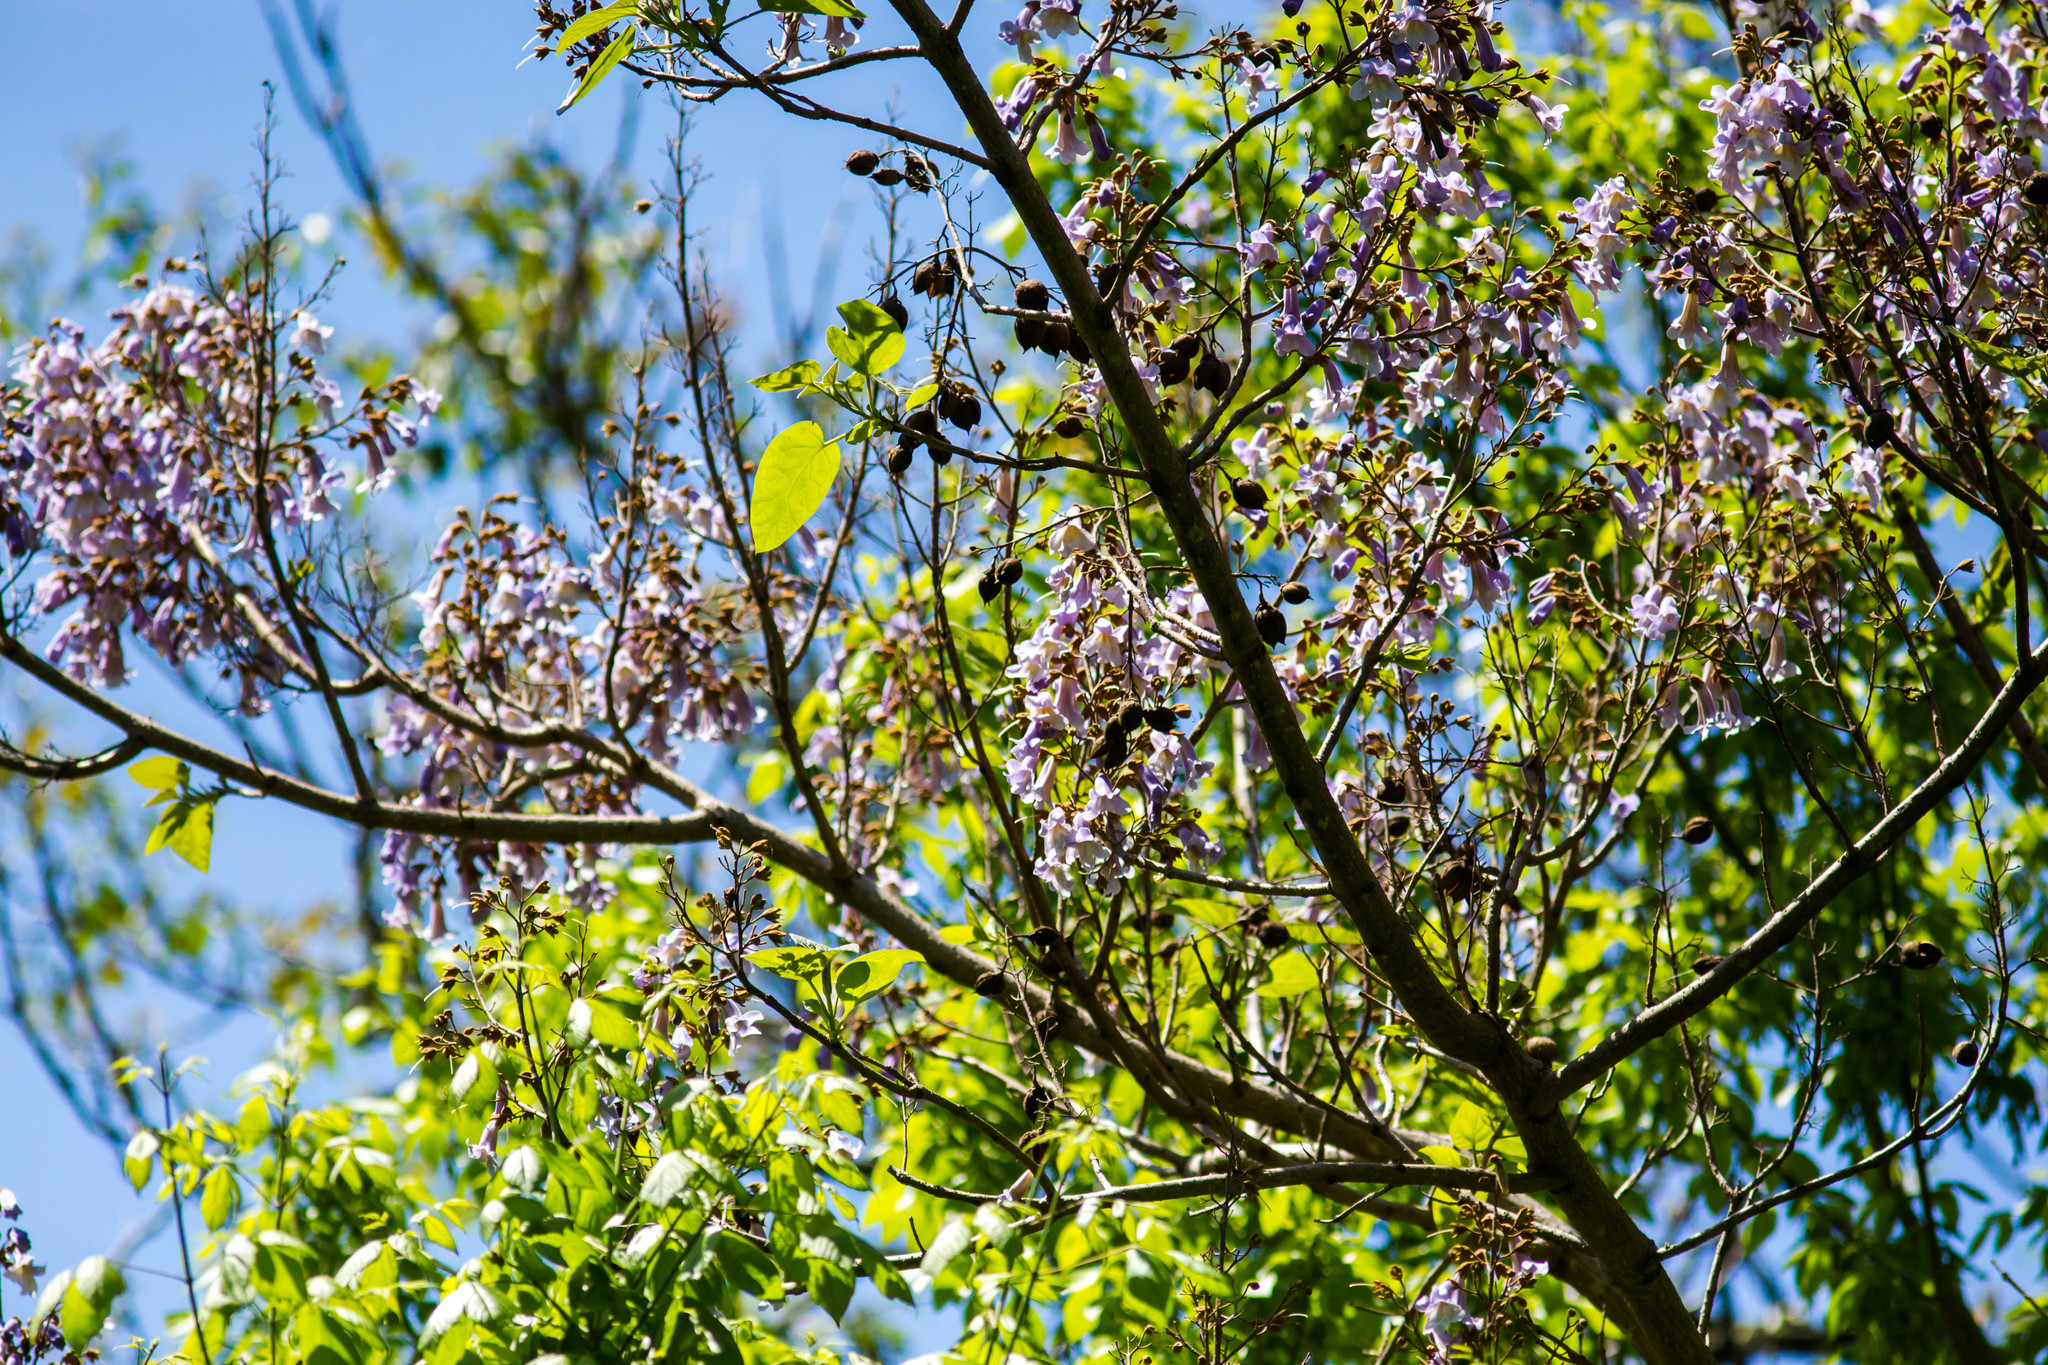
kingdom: Plantae
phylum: Tracheophyta
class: Magnoliopsida
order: Lamiales
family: Paulowniaceae
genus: Paulownia
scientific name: Paulownia tomentosa
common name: Foxglove-tree
